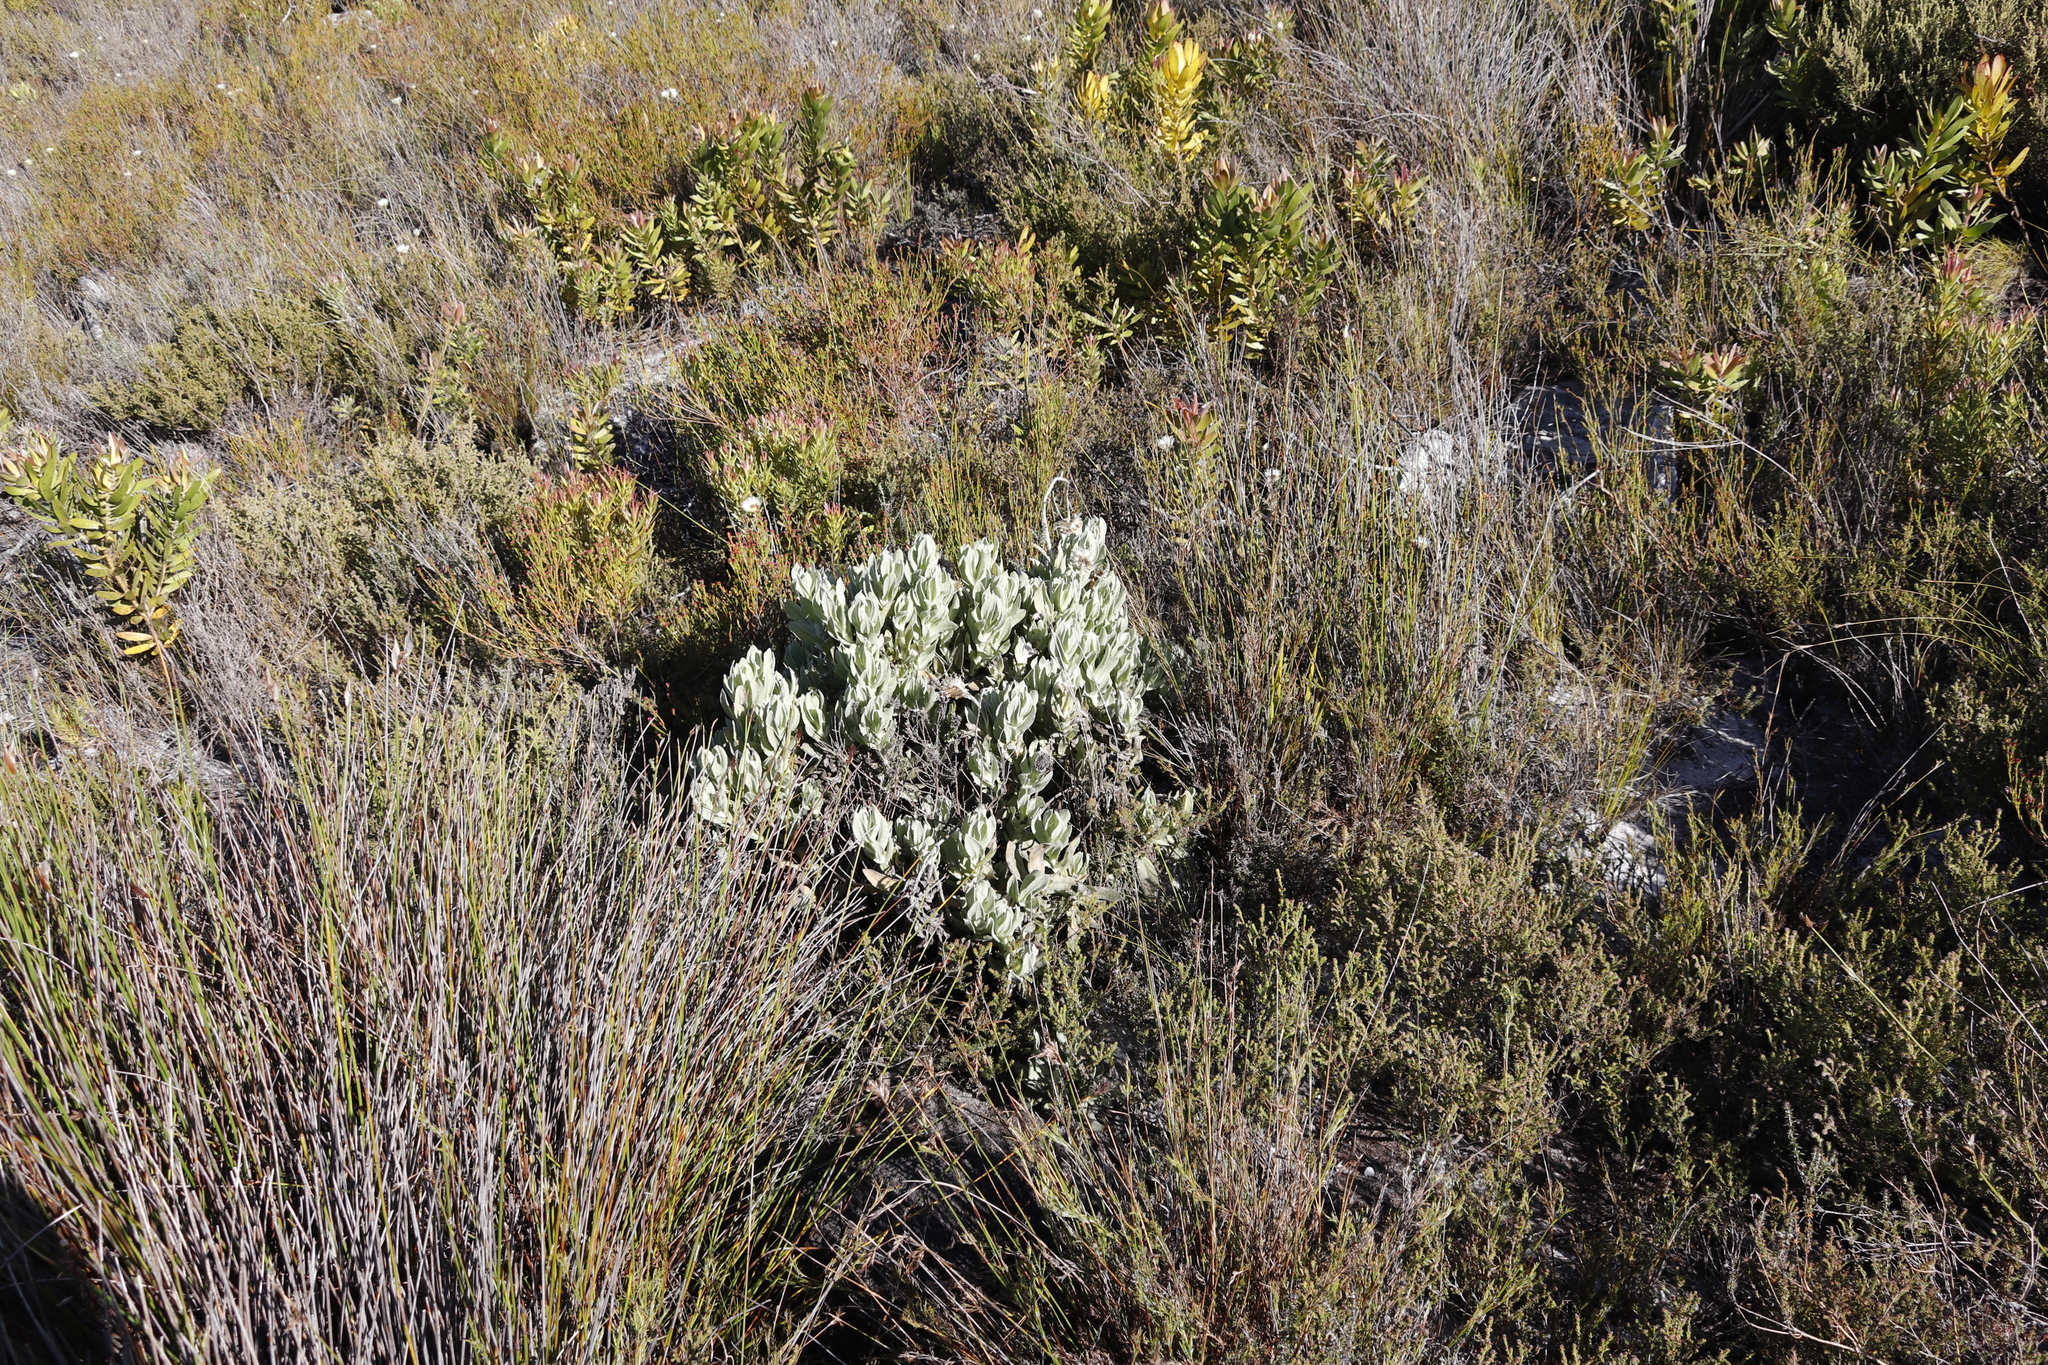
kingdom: Plantae
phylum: Tracheophyta
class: Magnoliopsida
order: Asterales
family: Asteraceae
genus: Syncarpha
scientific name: Syncarpha vestita
